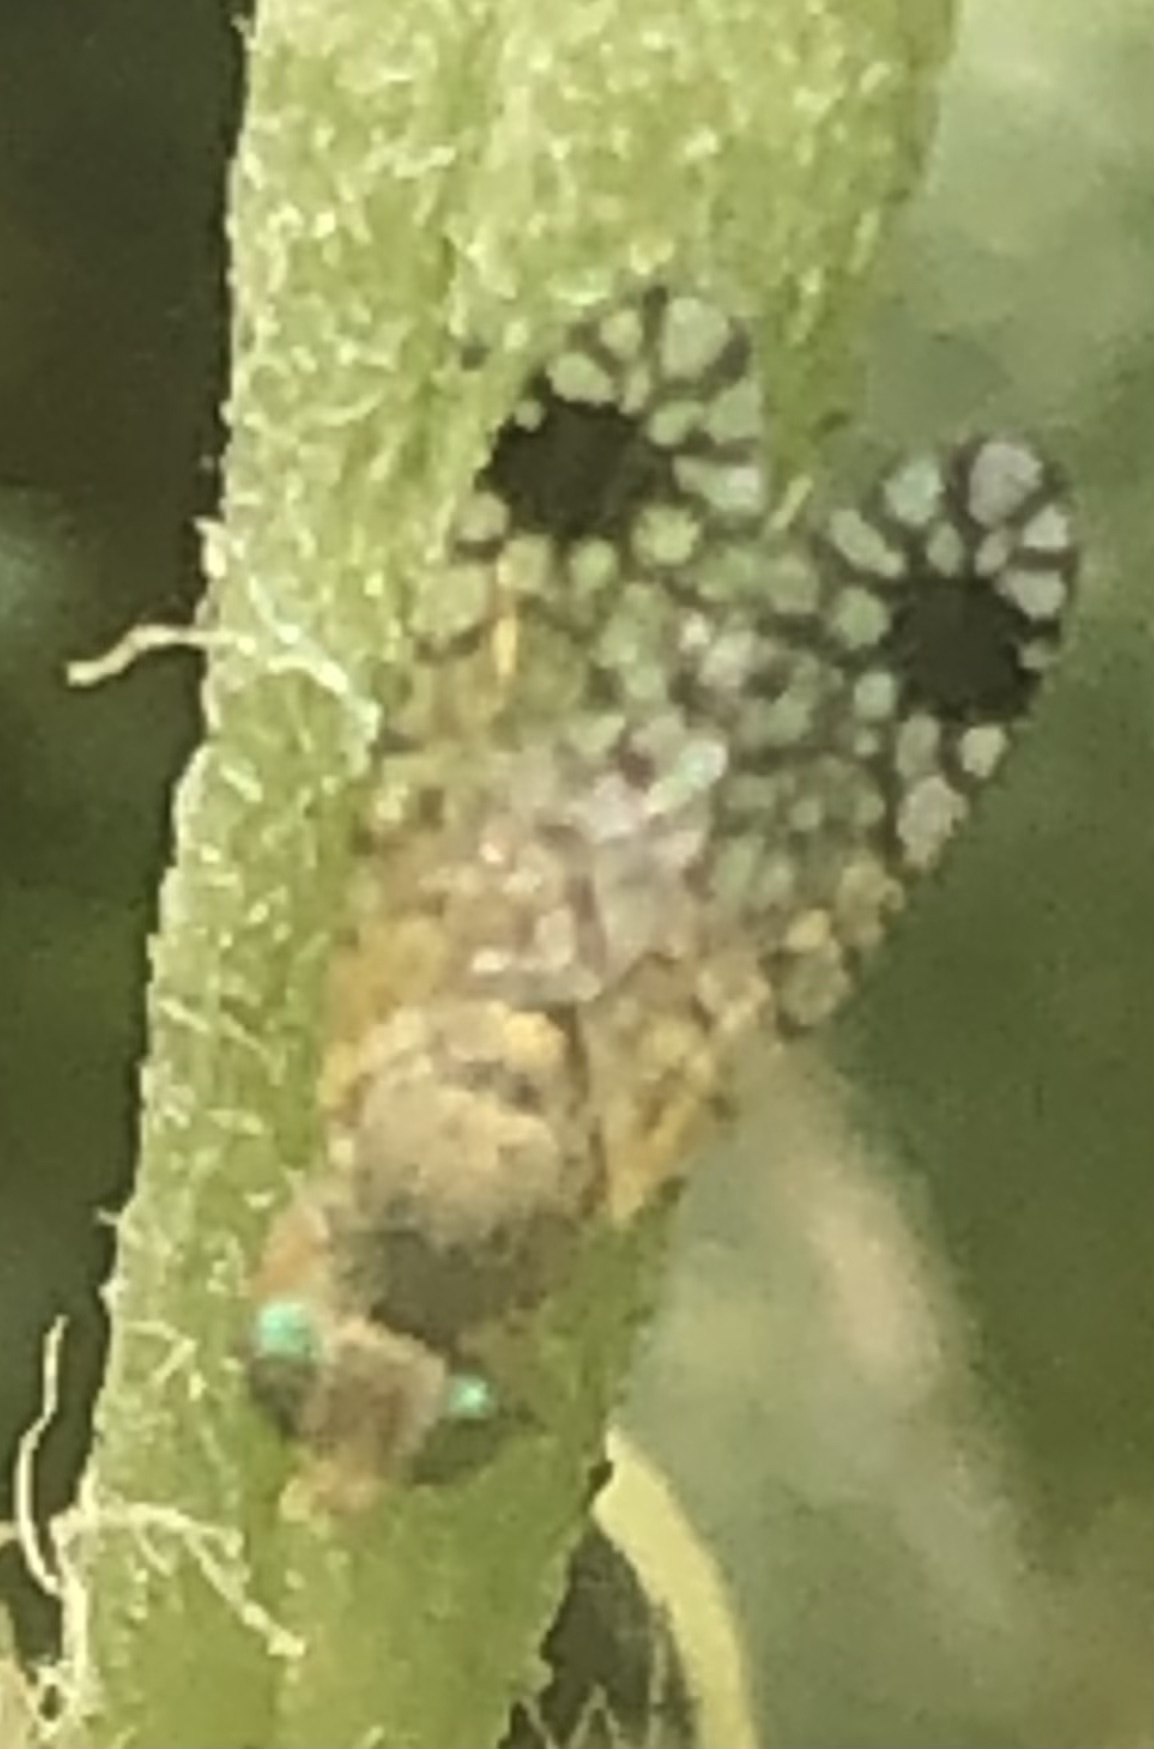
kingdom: Animalia
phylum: Arthropoda
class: Insecta
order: Diptera
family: Tephritidae
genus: Euarestoides
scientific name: Euarestoides acutangulus
